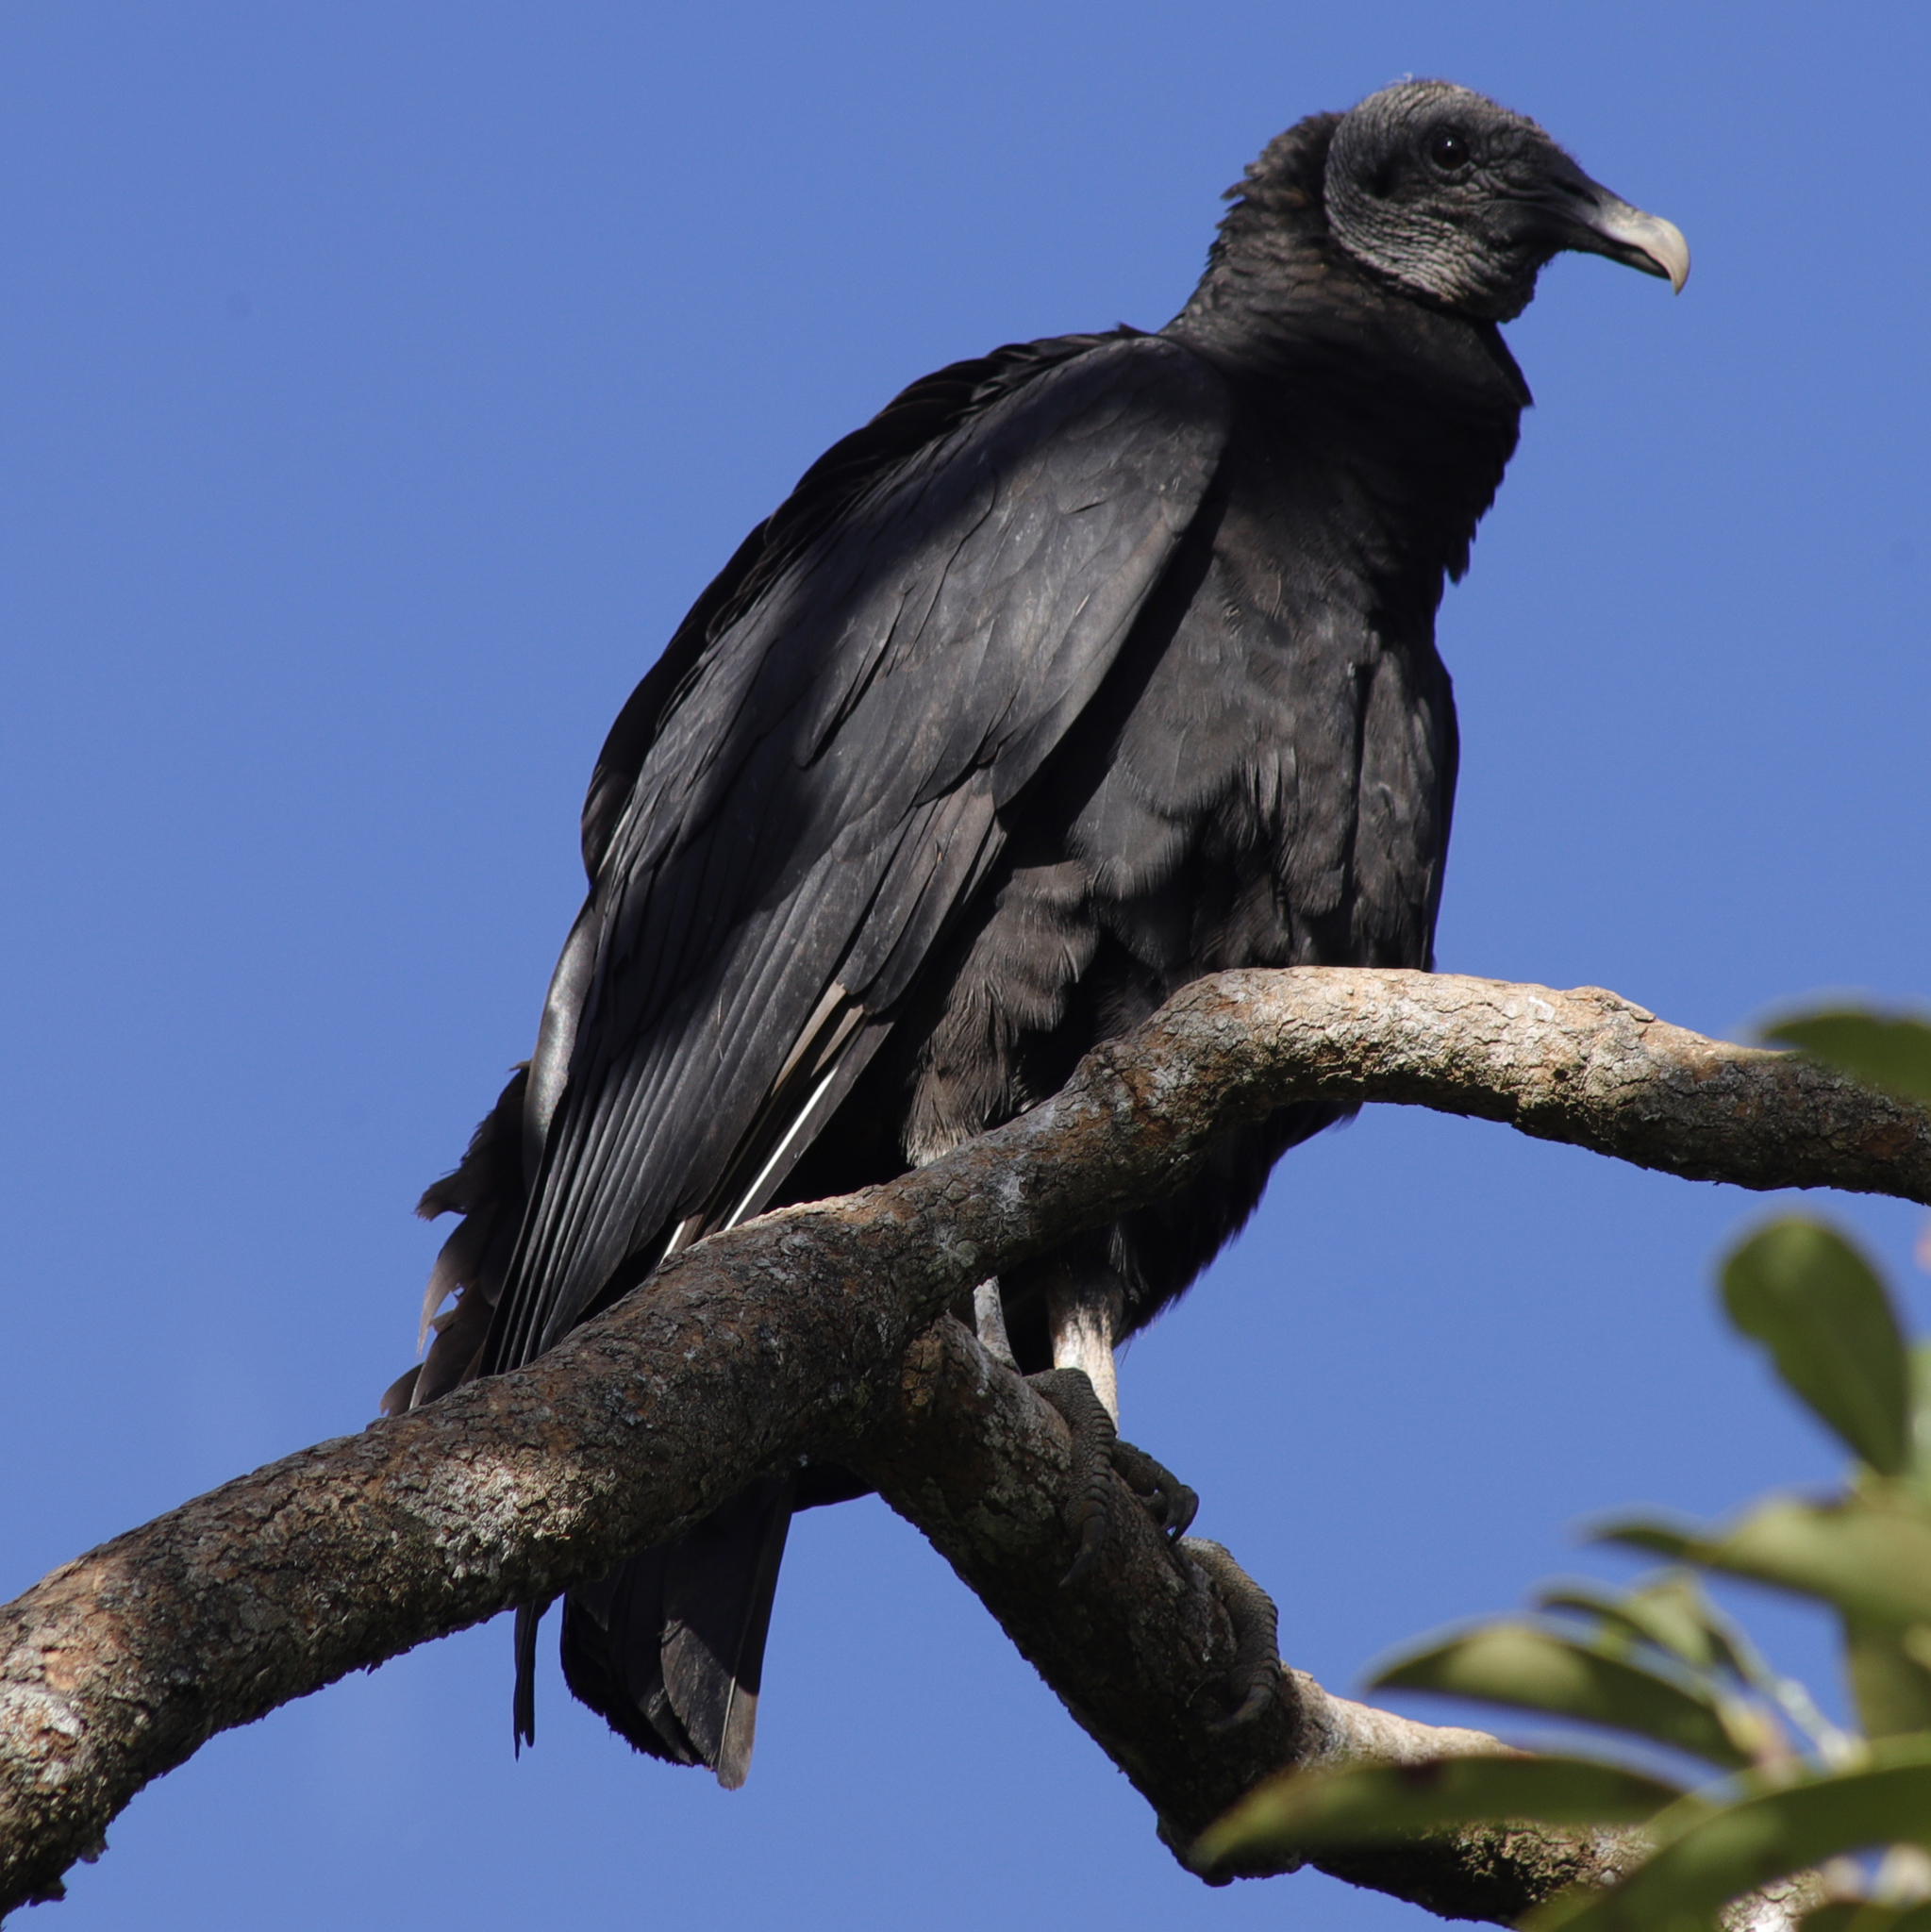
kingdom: Animalia
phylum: Chordata
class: Aves
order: Accipitriformes
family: Cathartidae
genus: Coragyps
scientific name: Coragyps atratus
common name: Black vulture
